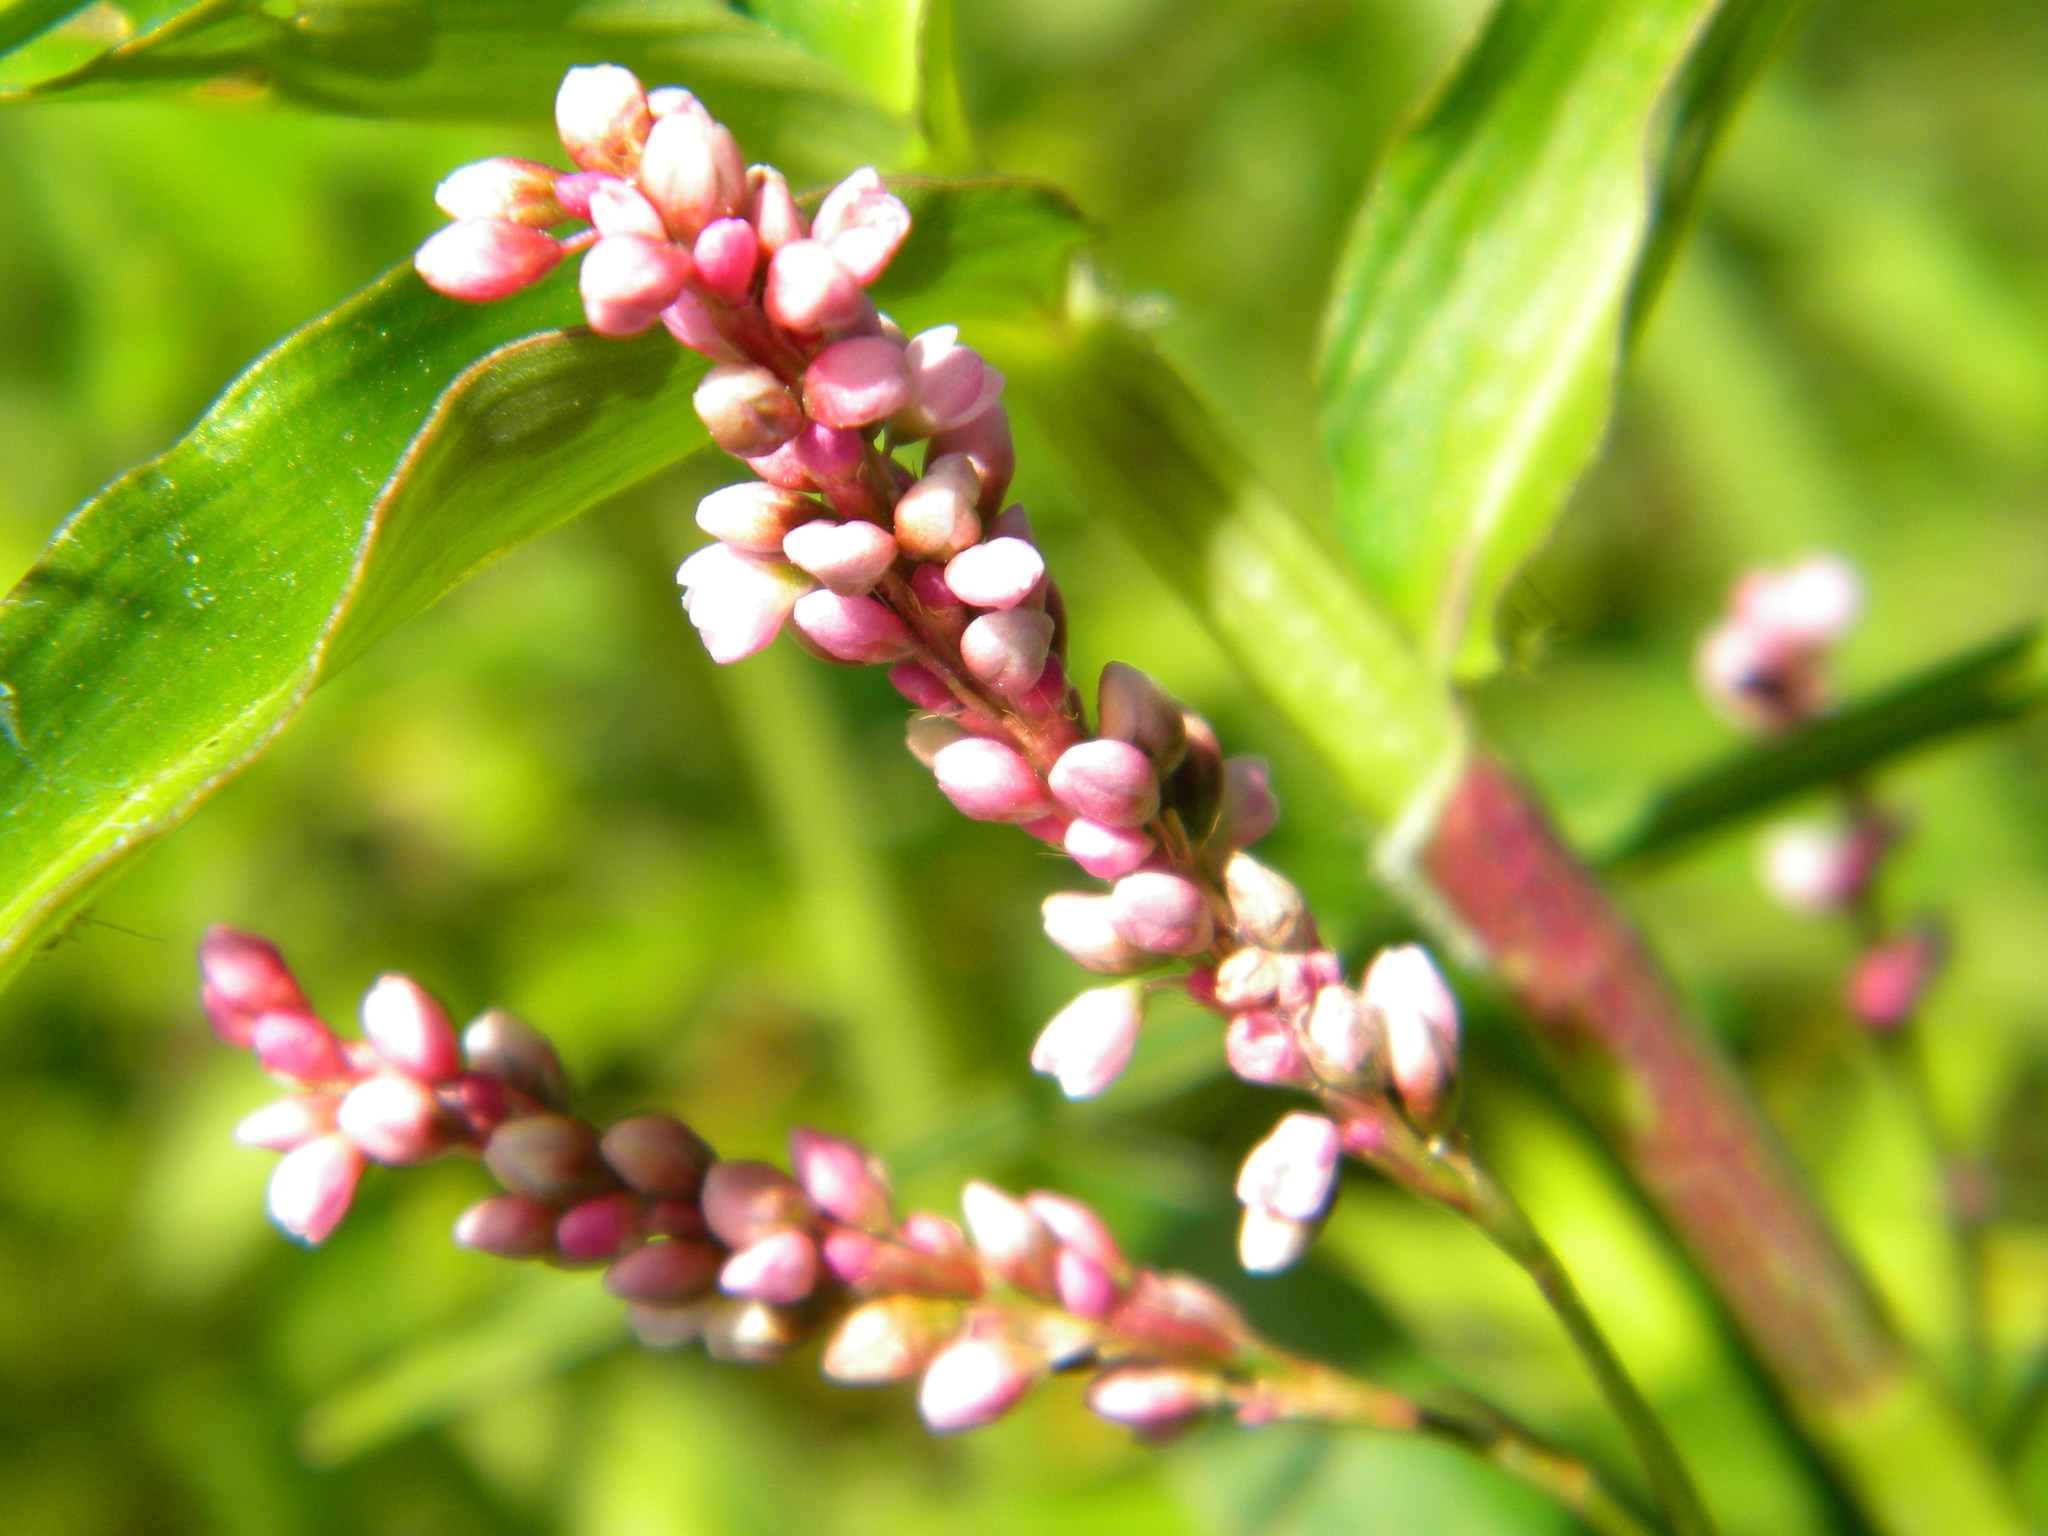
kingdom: Plantae
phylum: Tracheophyta
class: Magnoliopsida
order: Caryophyllales
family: Polygonaceae
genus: Persicaria
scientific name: Persicaria decipiens
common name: Willow-weed
